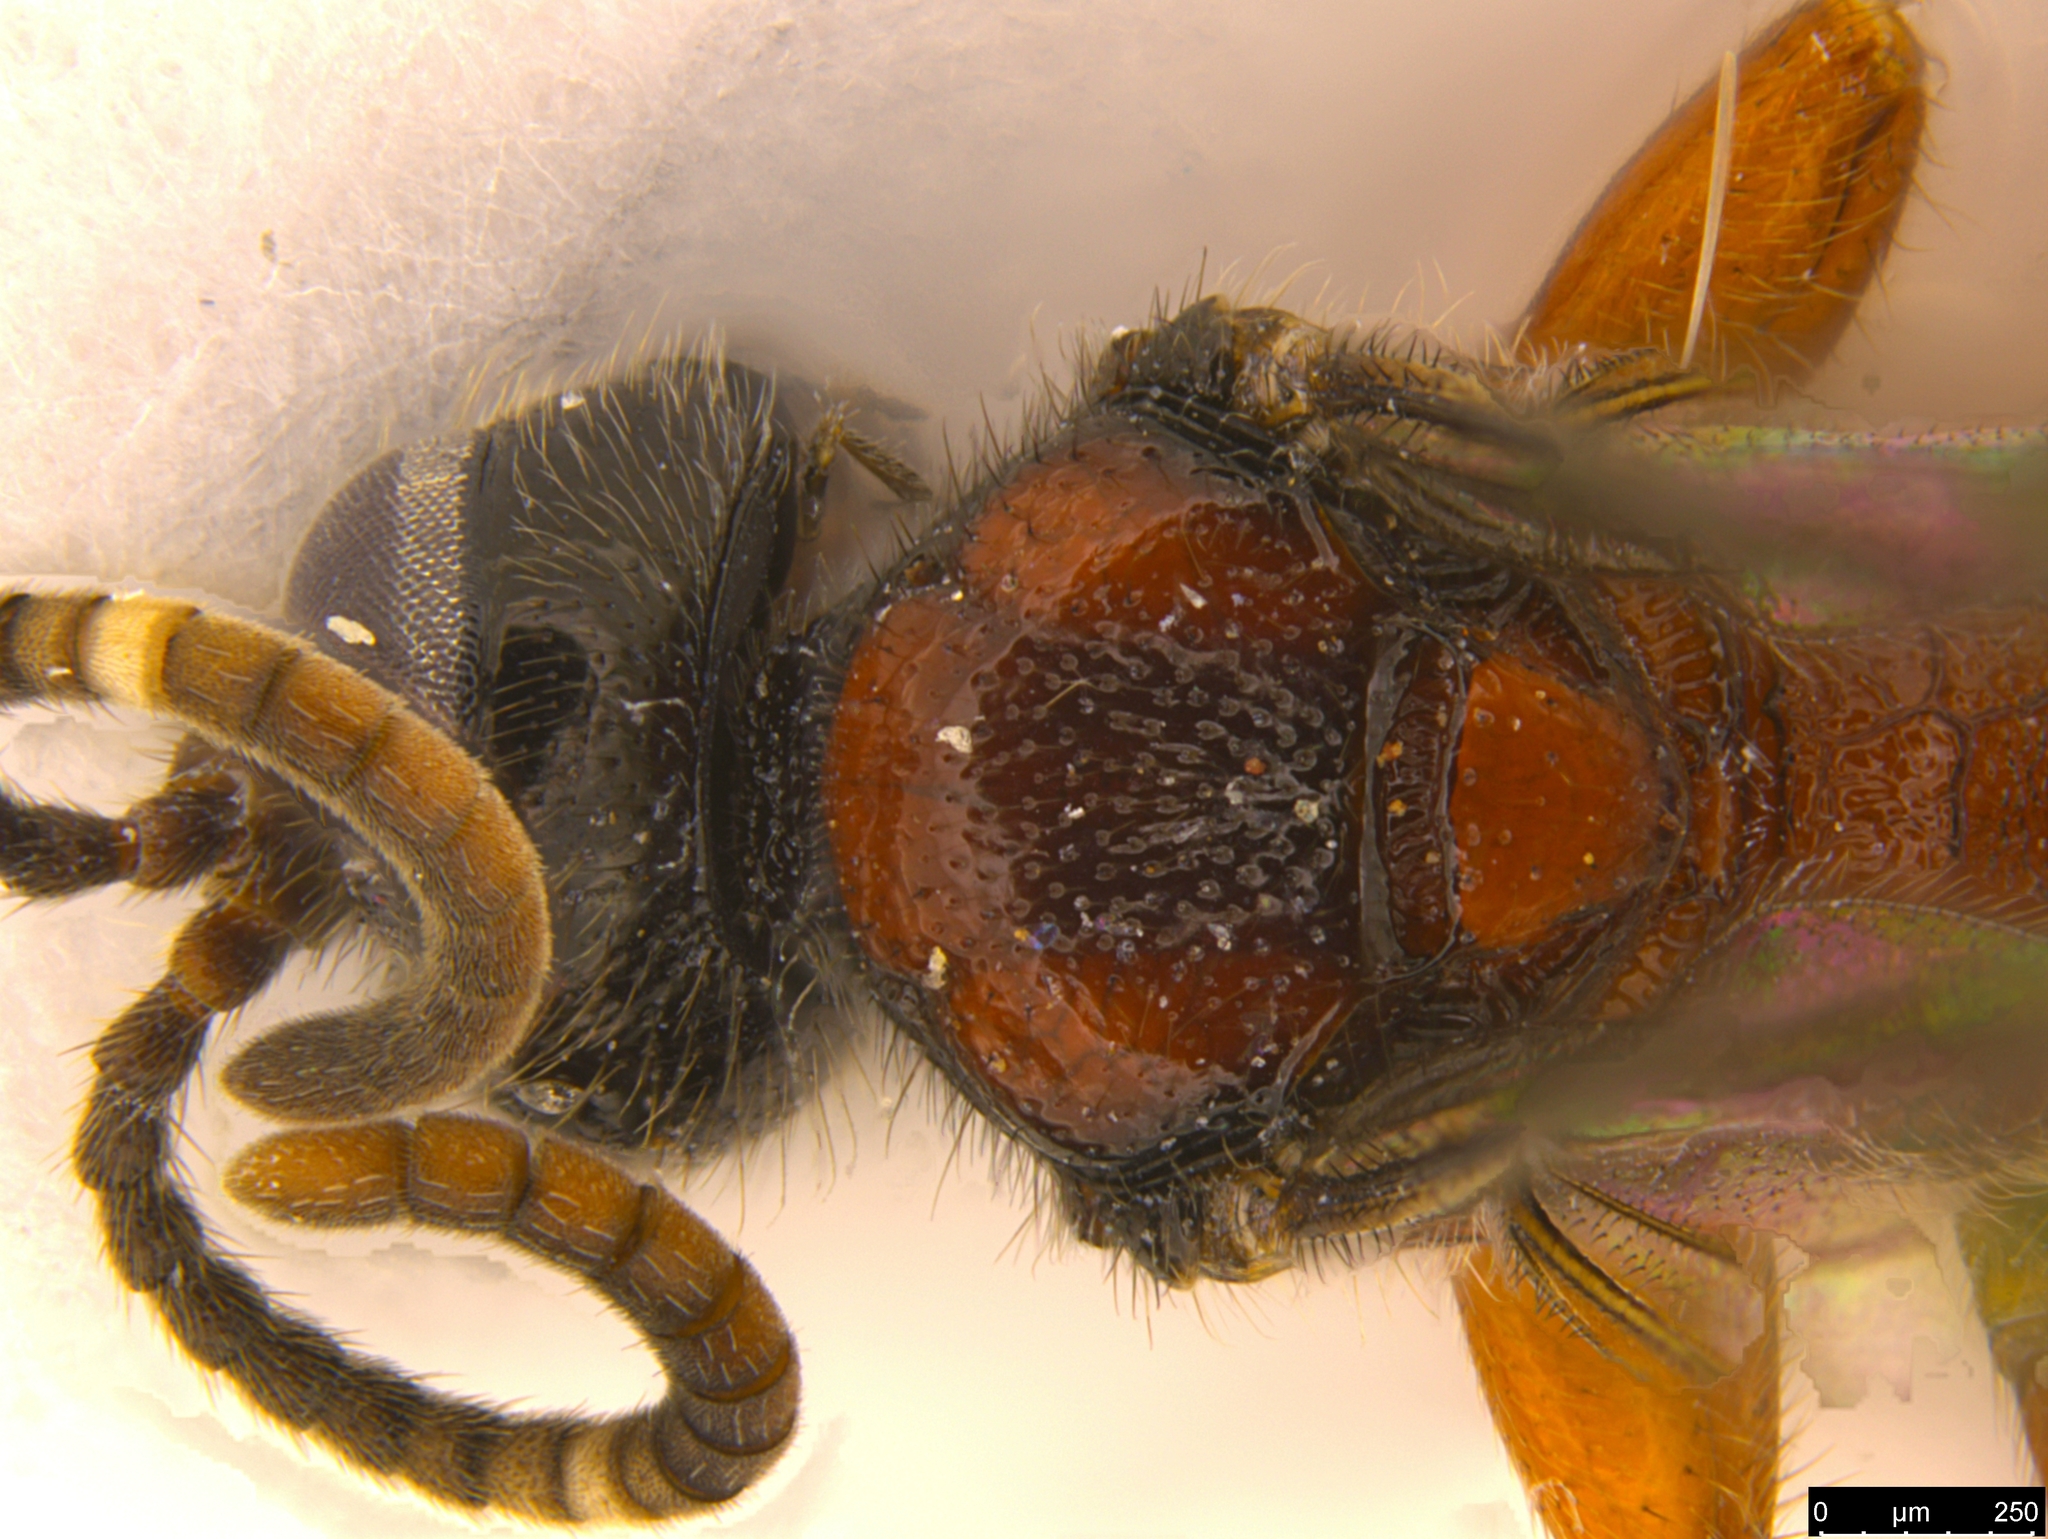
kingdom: Animalia
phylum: Arthropoda
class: Insecta
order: Hymenoptera
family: Ichneumonidae
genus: Meringops
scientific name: Meringops
